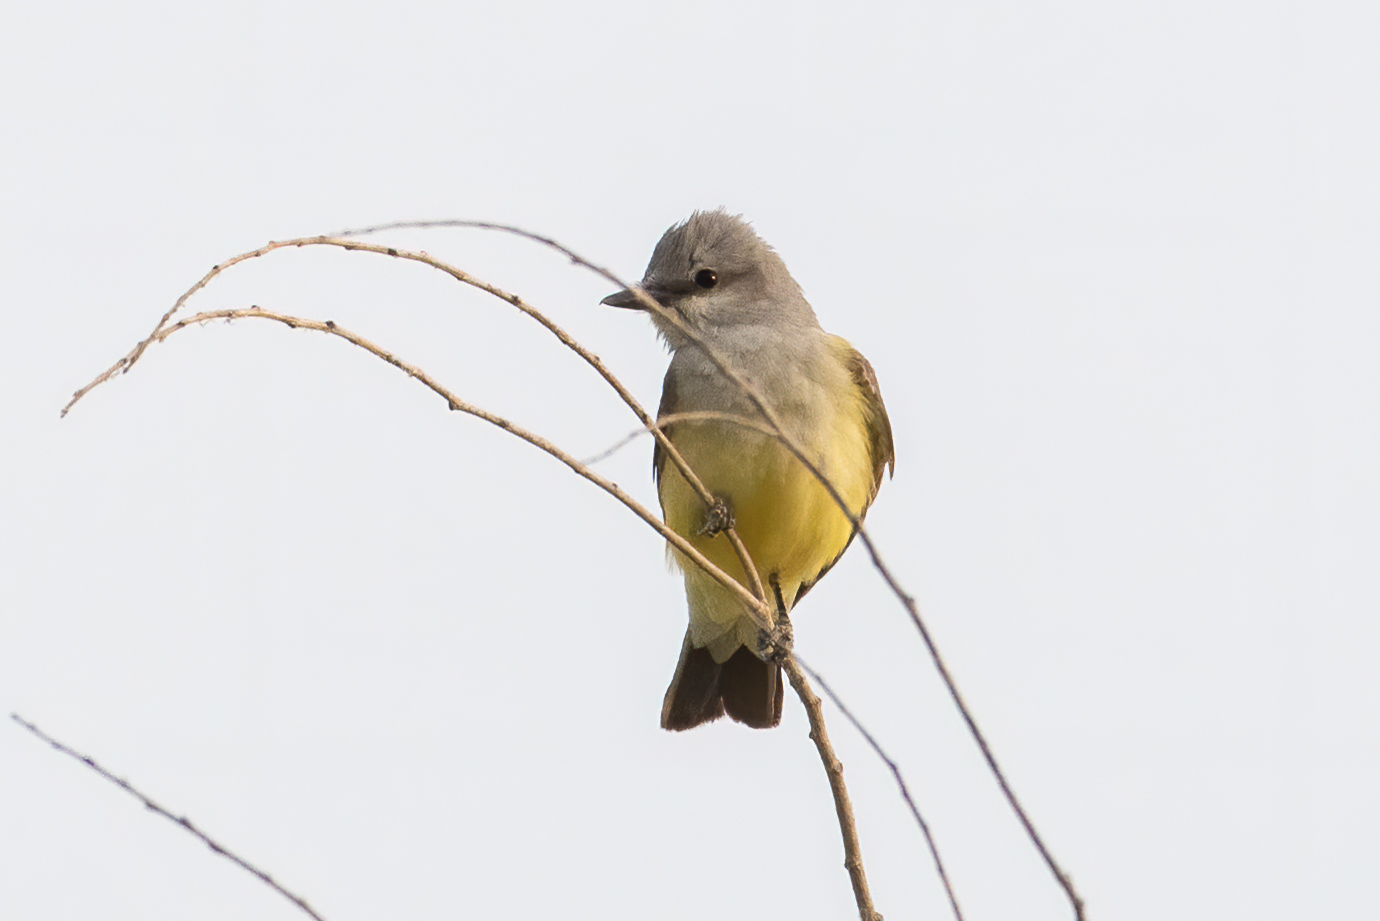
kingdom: Animalia
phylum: Chordata
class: Aves
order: Passeriformes
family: Tyrannidae
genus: Tyrannus
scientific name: Tyrannus verticalis
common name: Western kingbird
